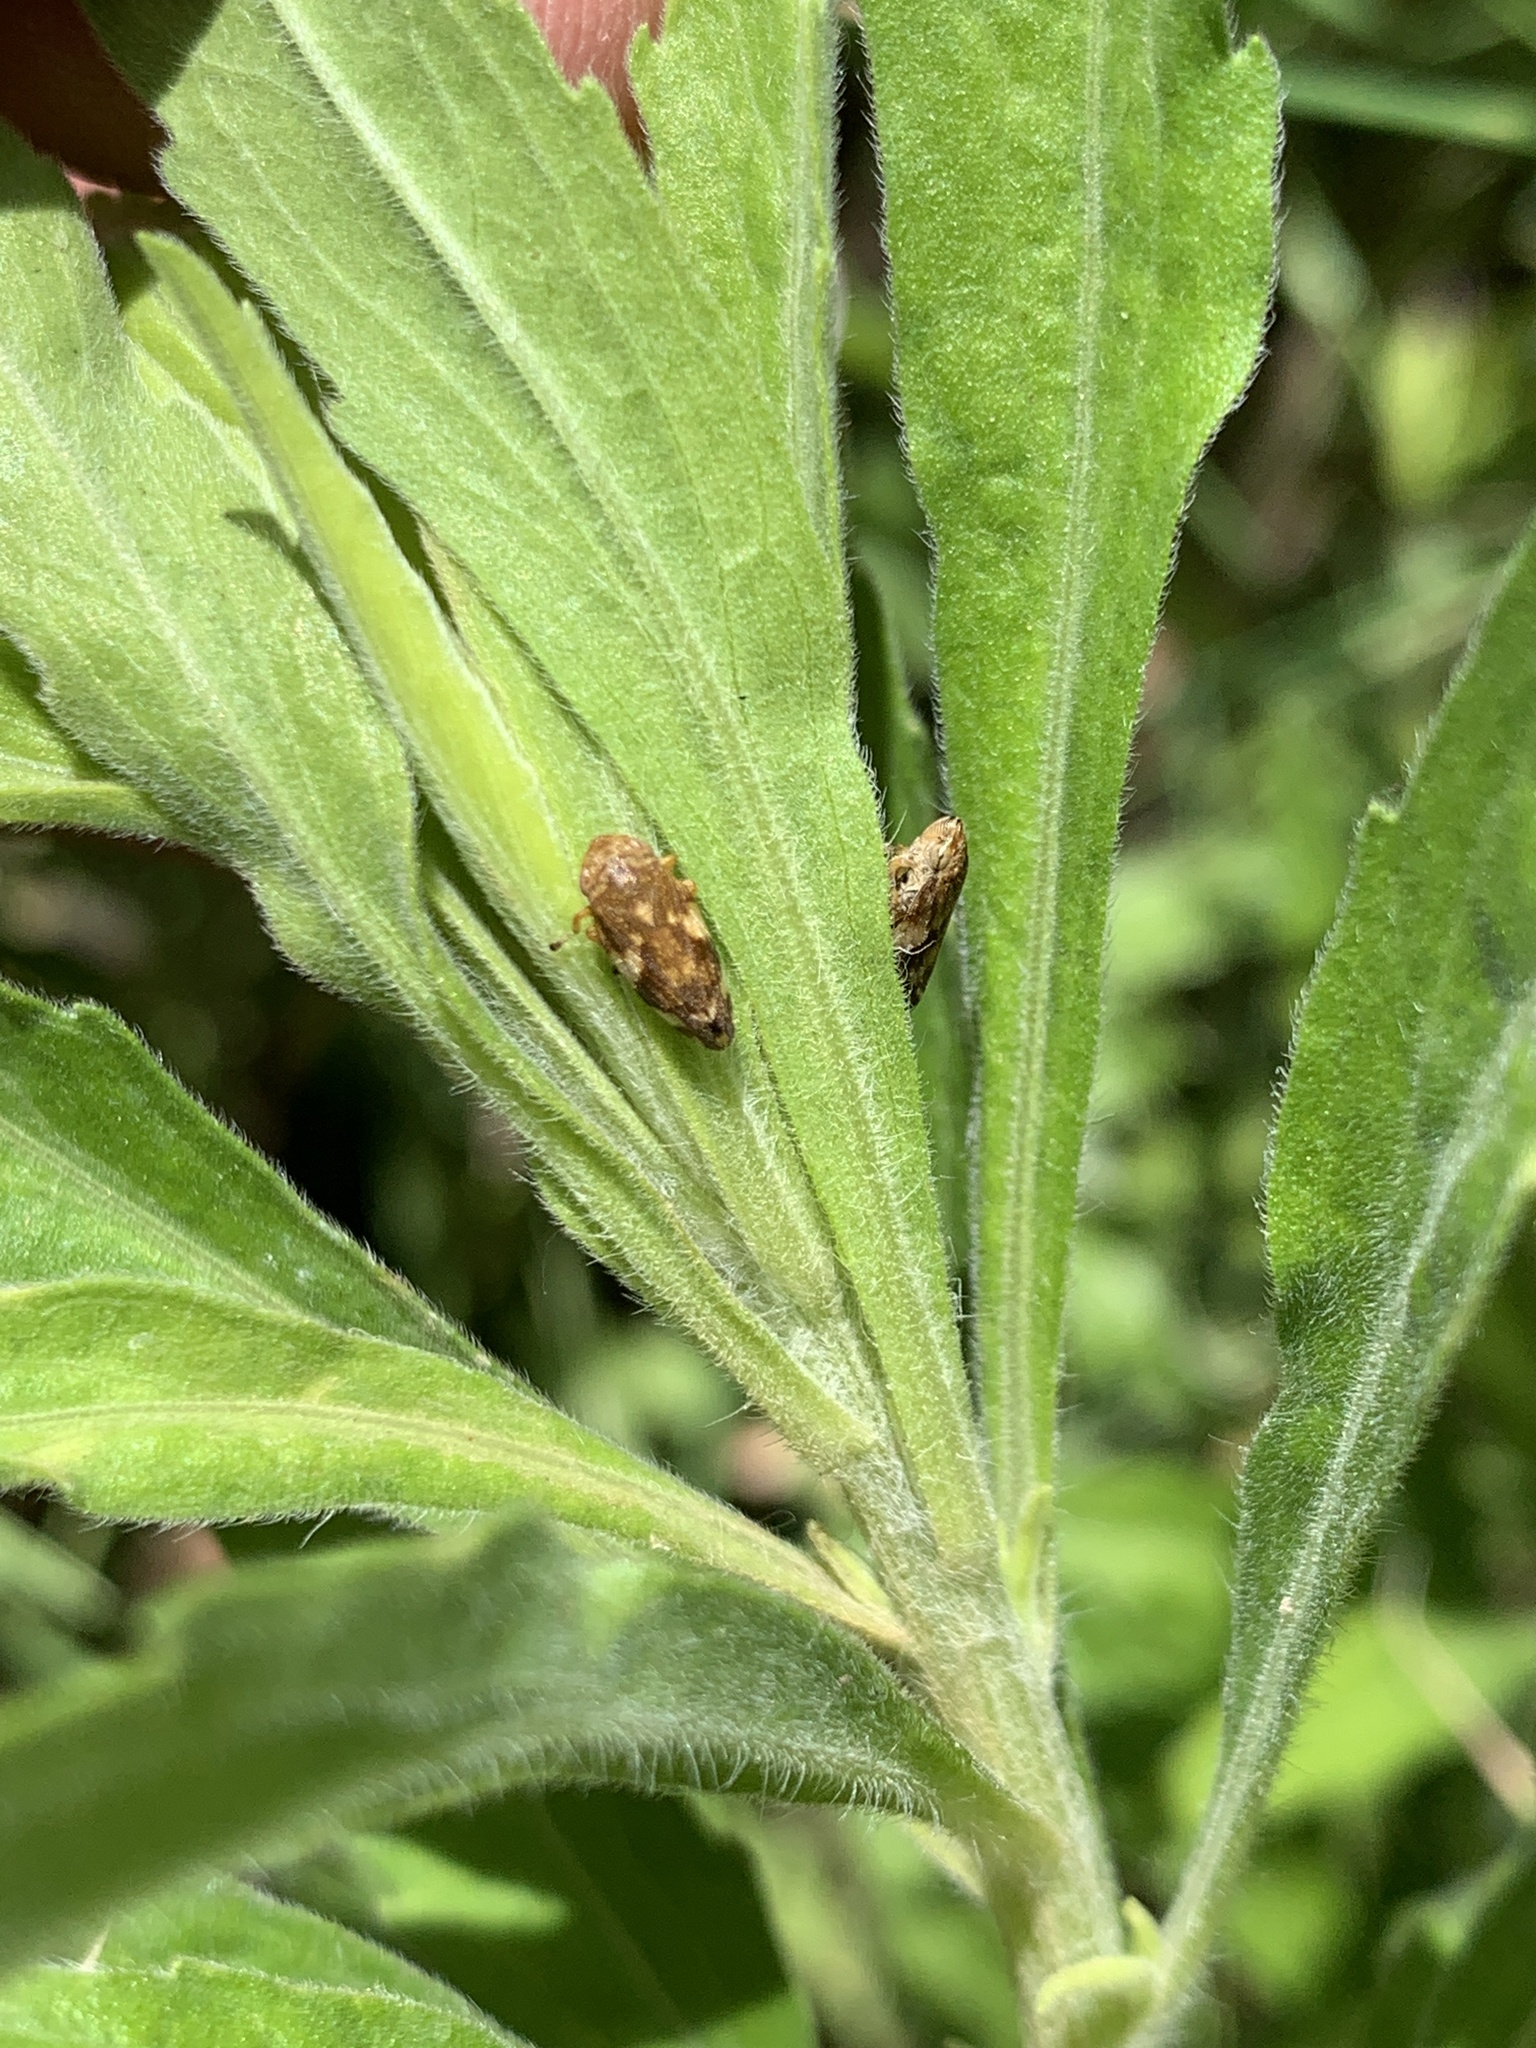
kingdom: Animalia
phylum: Arthropoda
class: Insecta
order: Hemiptera
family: Aphrophoridae
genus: Philaenus
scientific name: Philaenus spumarius
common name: Meadow spittlebug
